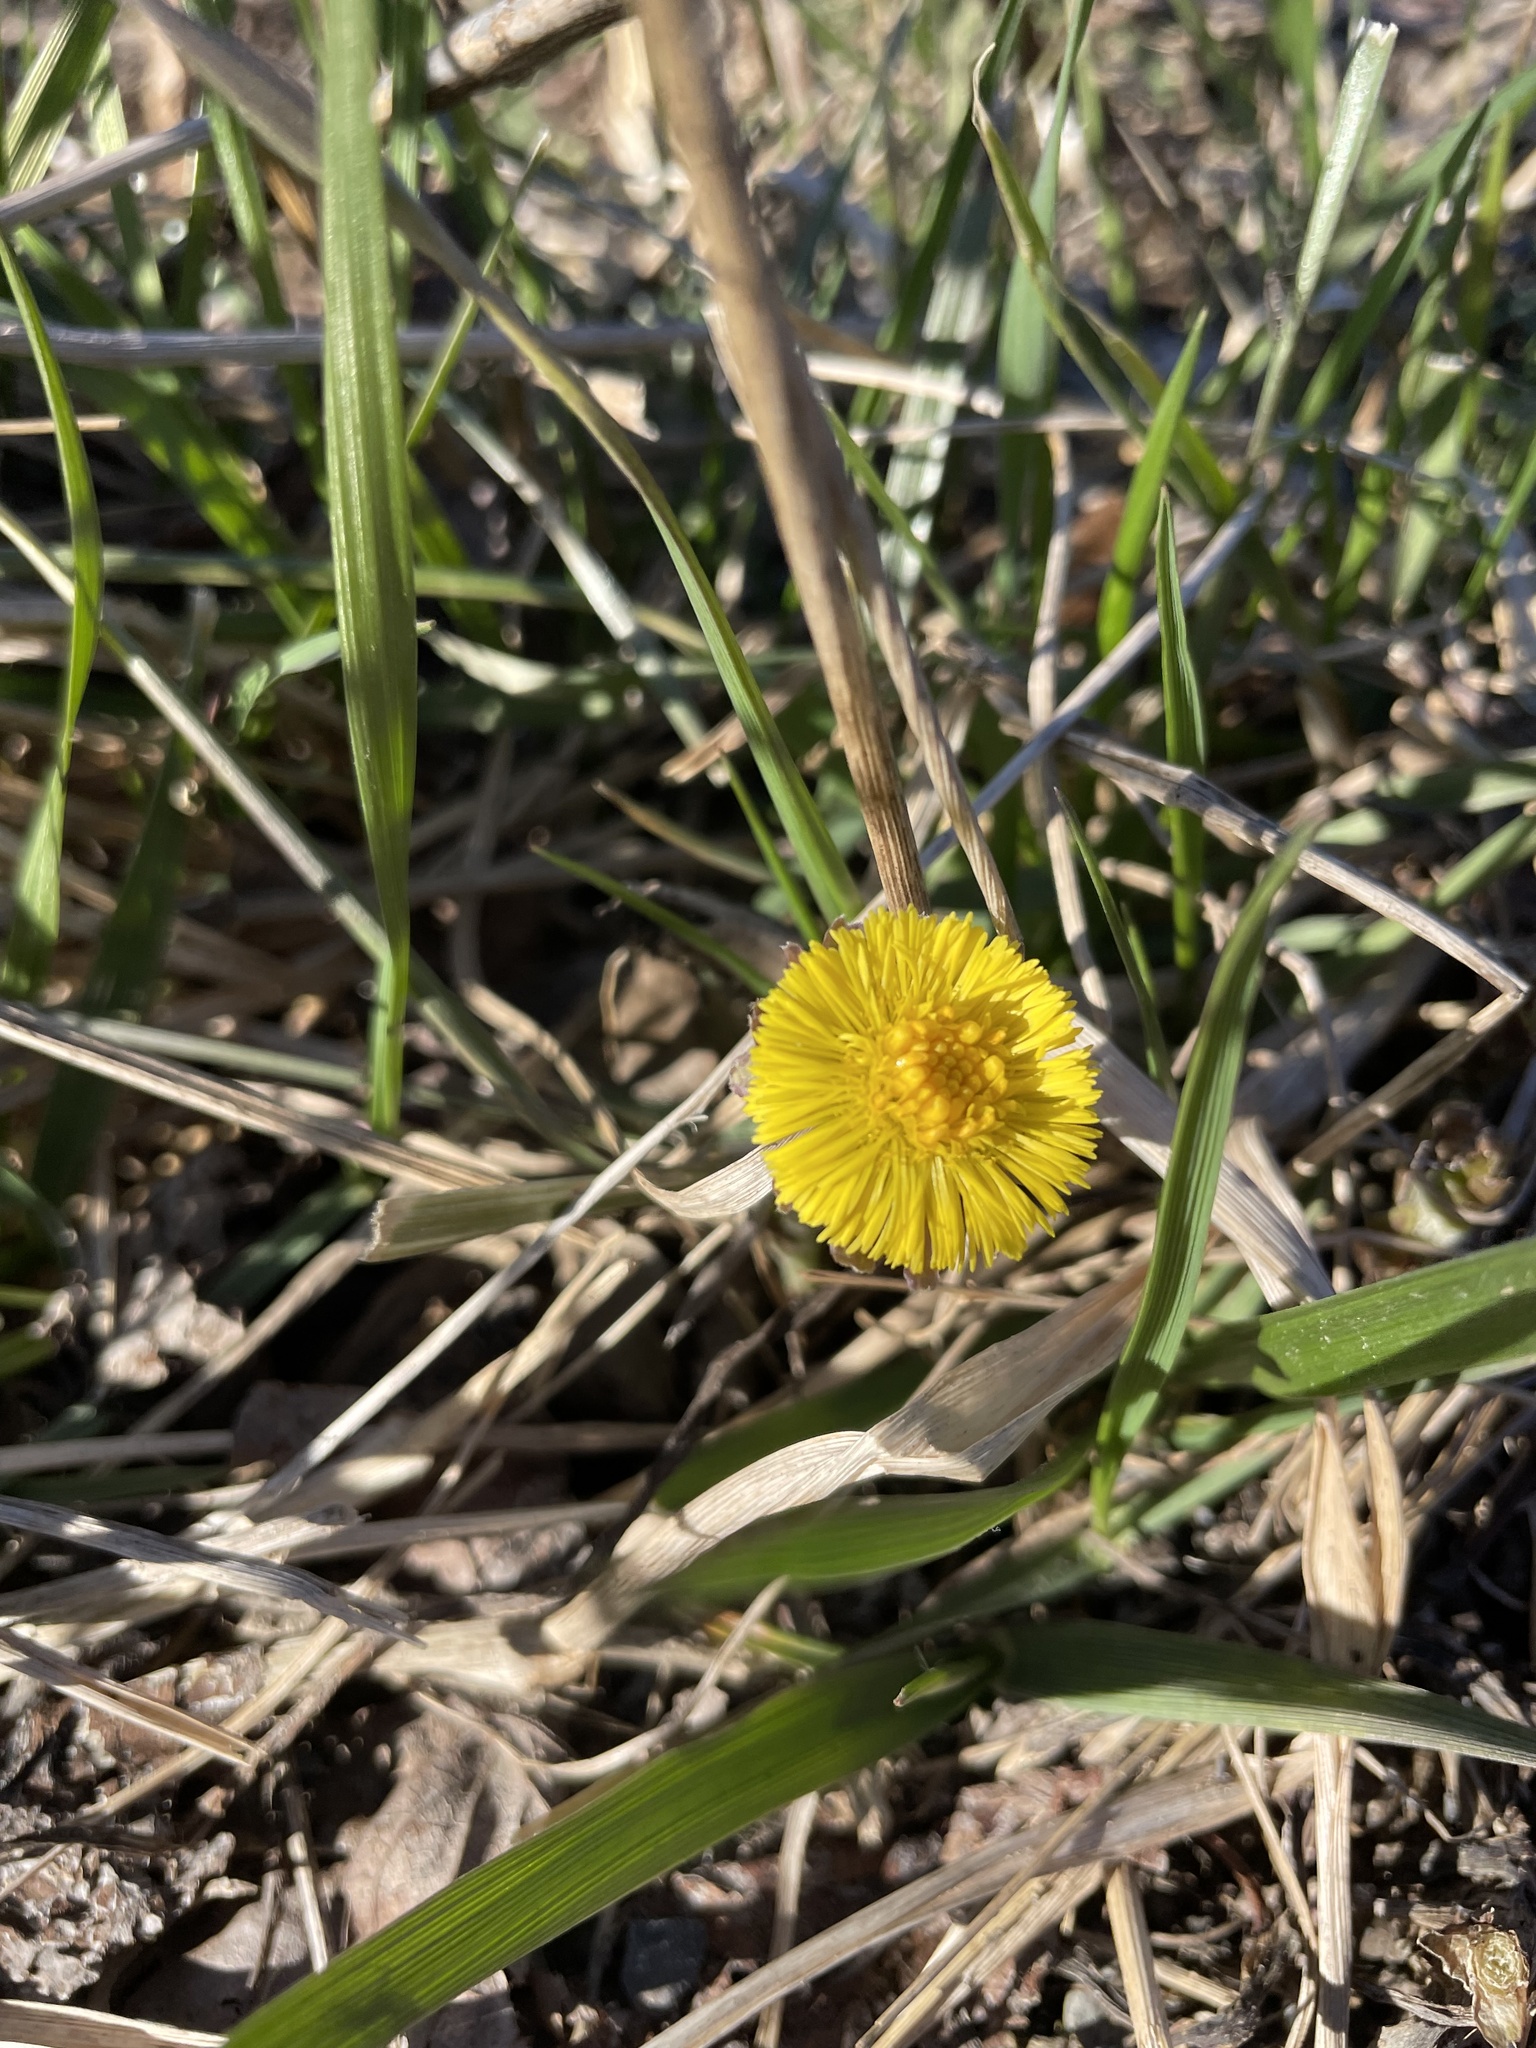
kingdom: Plantae
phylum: Tracheophyta
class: Magnoliopsida
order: Asterales
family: Asteraceae
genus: Tussilago
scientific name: Tussilago farfara
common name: Coltsfoot
